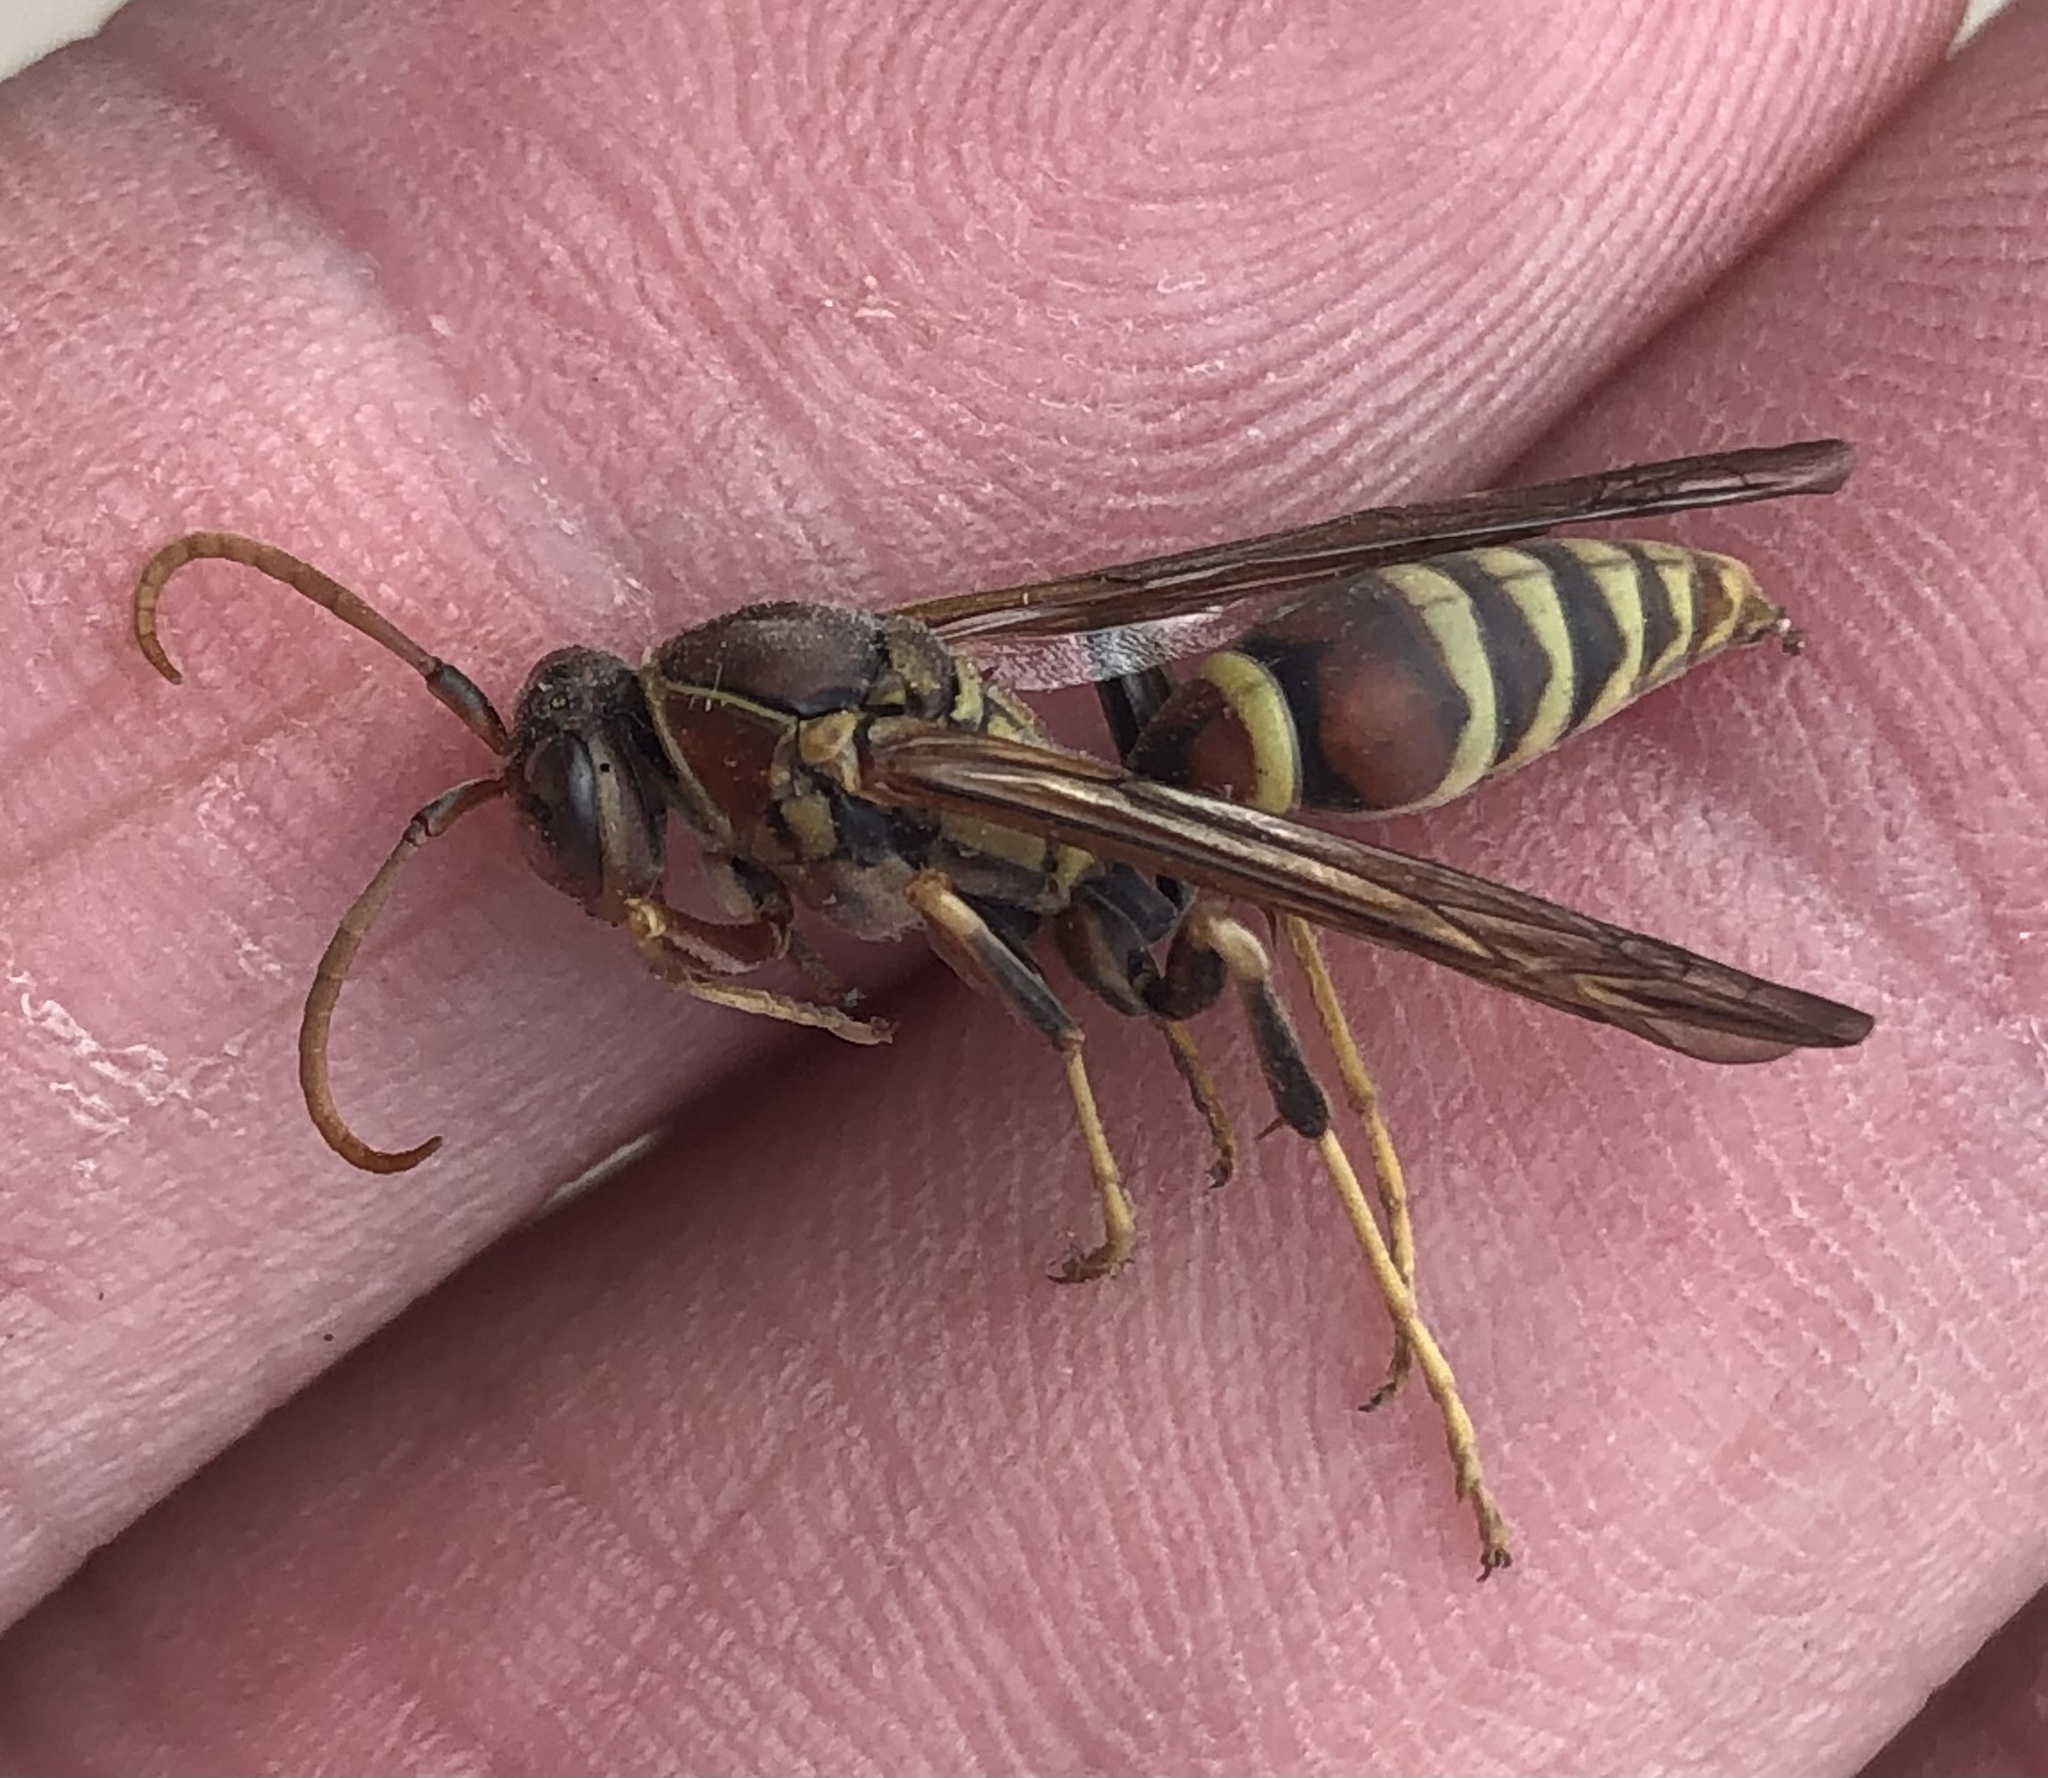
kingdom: Animalia
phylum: Arthropoda
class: Insecta
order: Hymenoptera
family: Eumenidae
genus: Polistes
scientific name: Polistes exclamans
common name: Paper wasp
